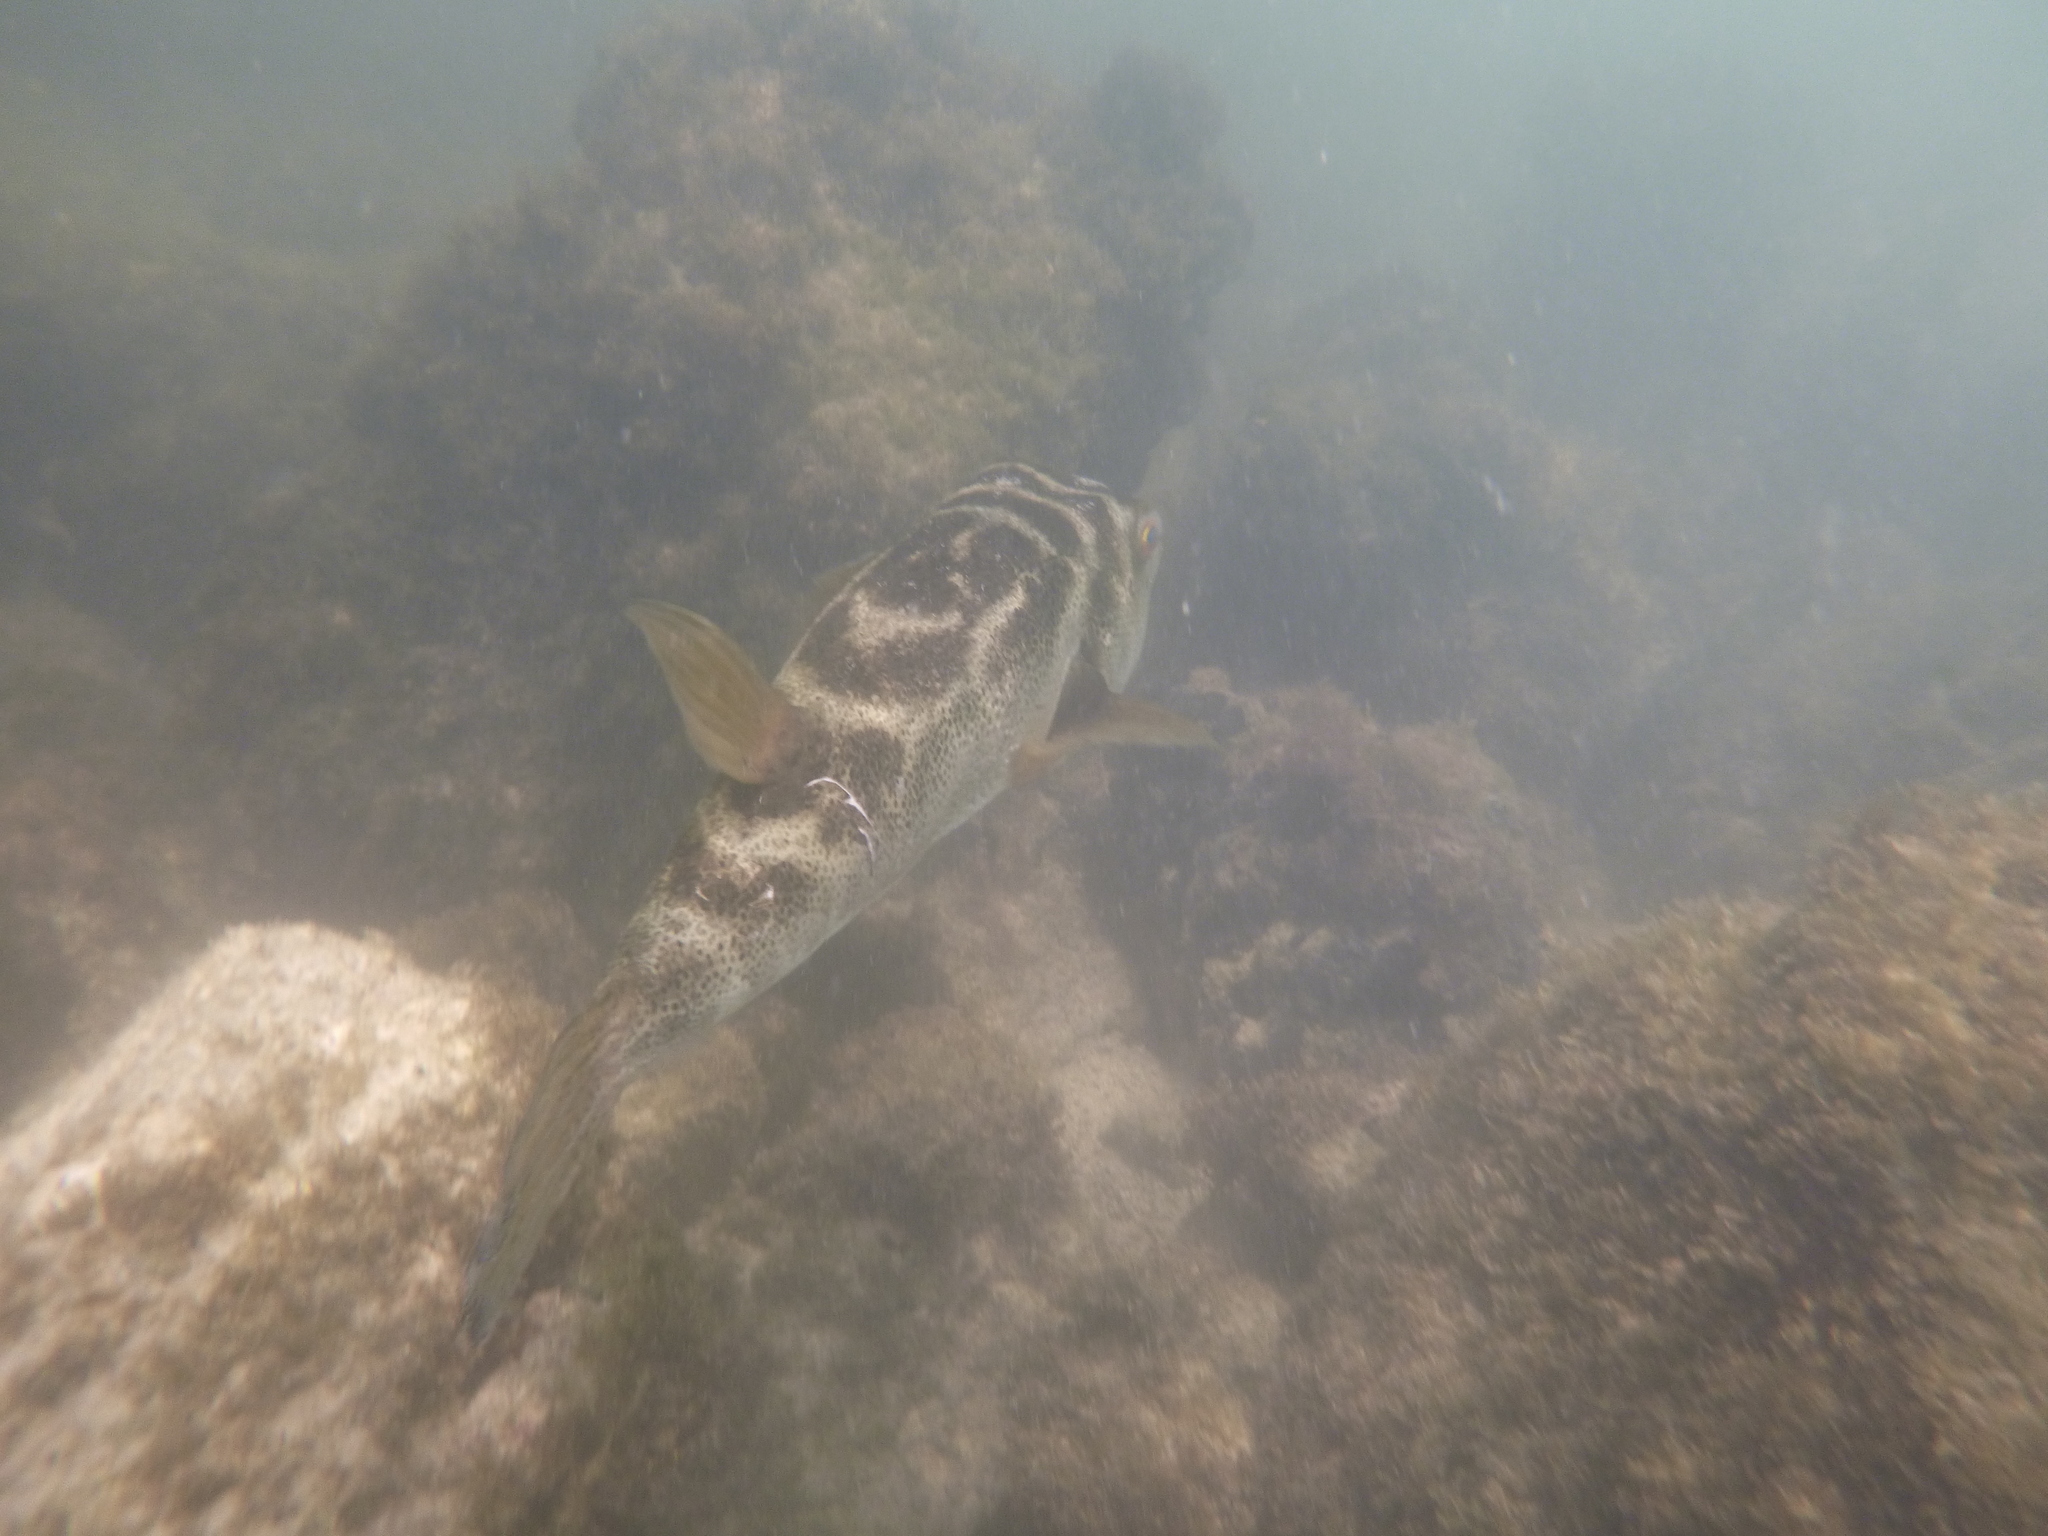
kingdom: Animalia
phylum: Chordata
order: Tetraodontiformes
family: Tetraodontidae
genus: Sphoeroides
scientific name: Sphoeroides annulatus
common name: Bullseye puffer
